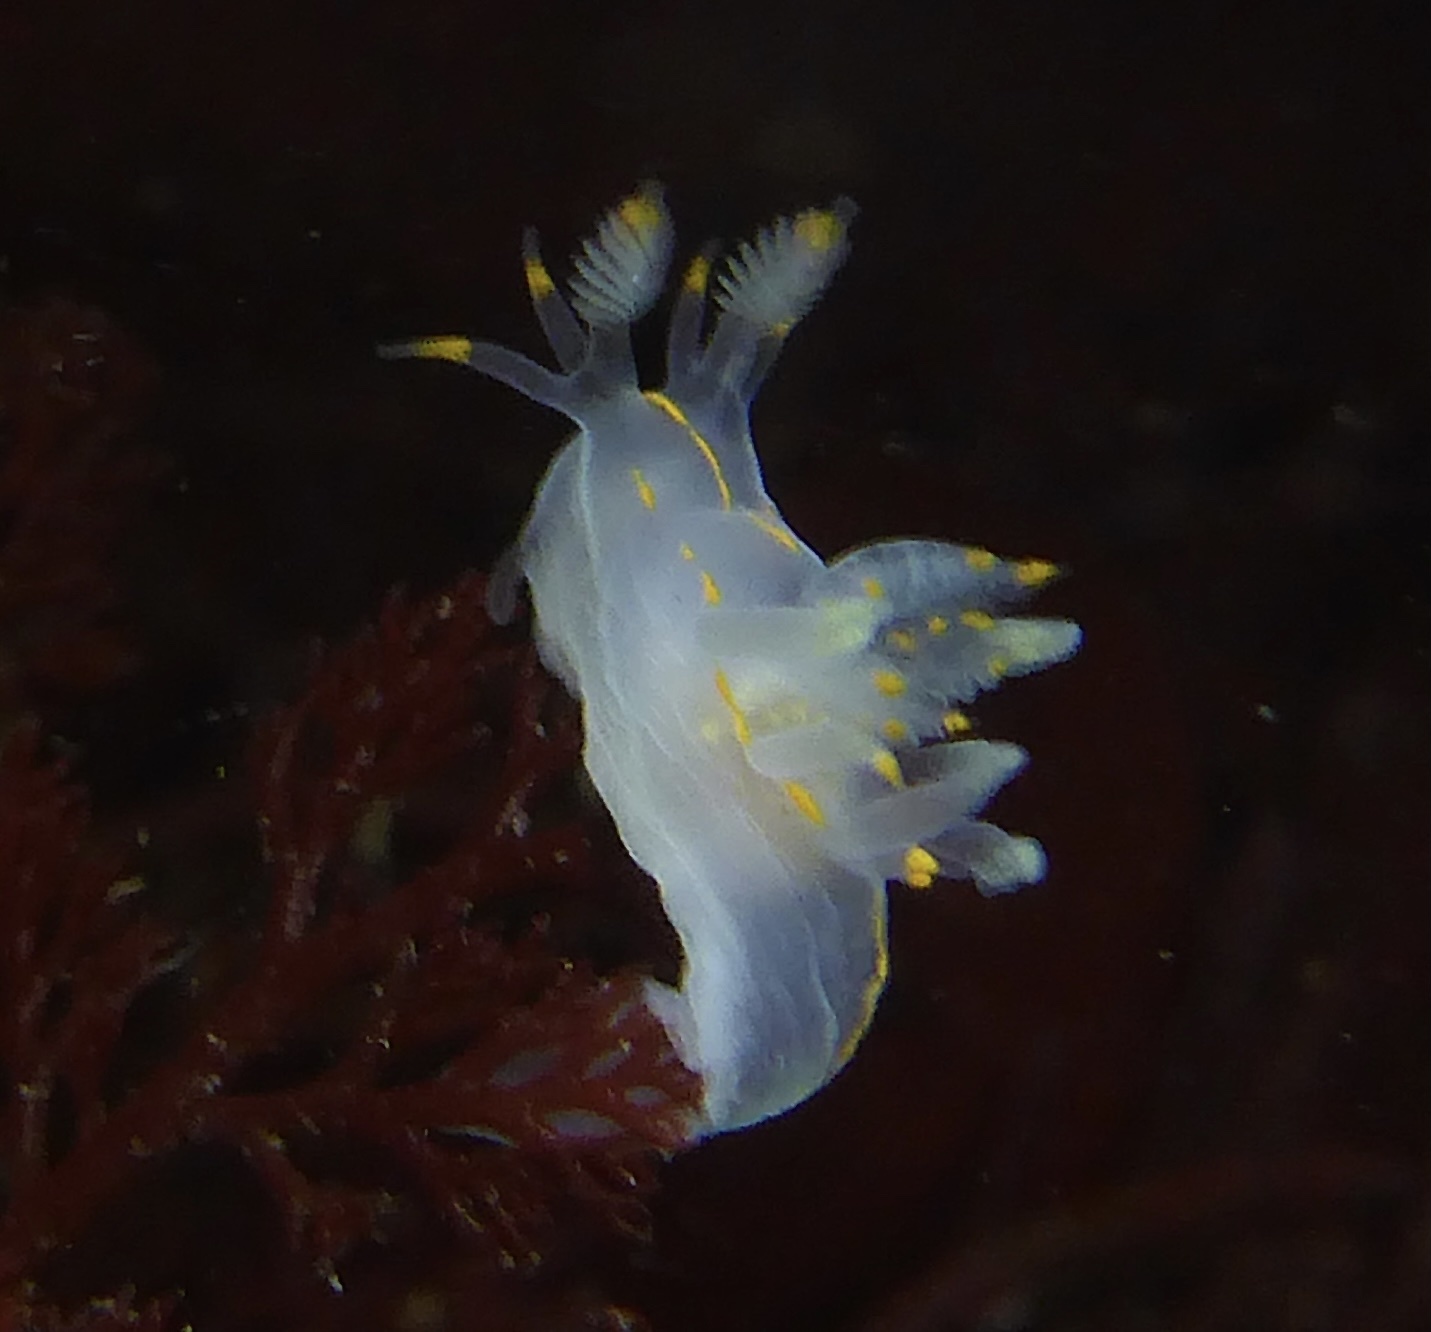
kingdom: Animalia
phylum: Mollusca
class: Gastropoda
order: Nudibranchia
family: Goniodorididae
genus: Ancula
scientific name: Ancula pacifica
